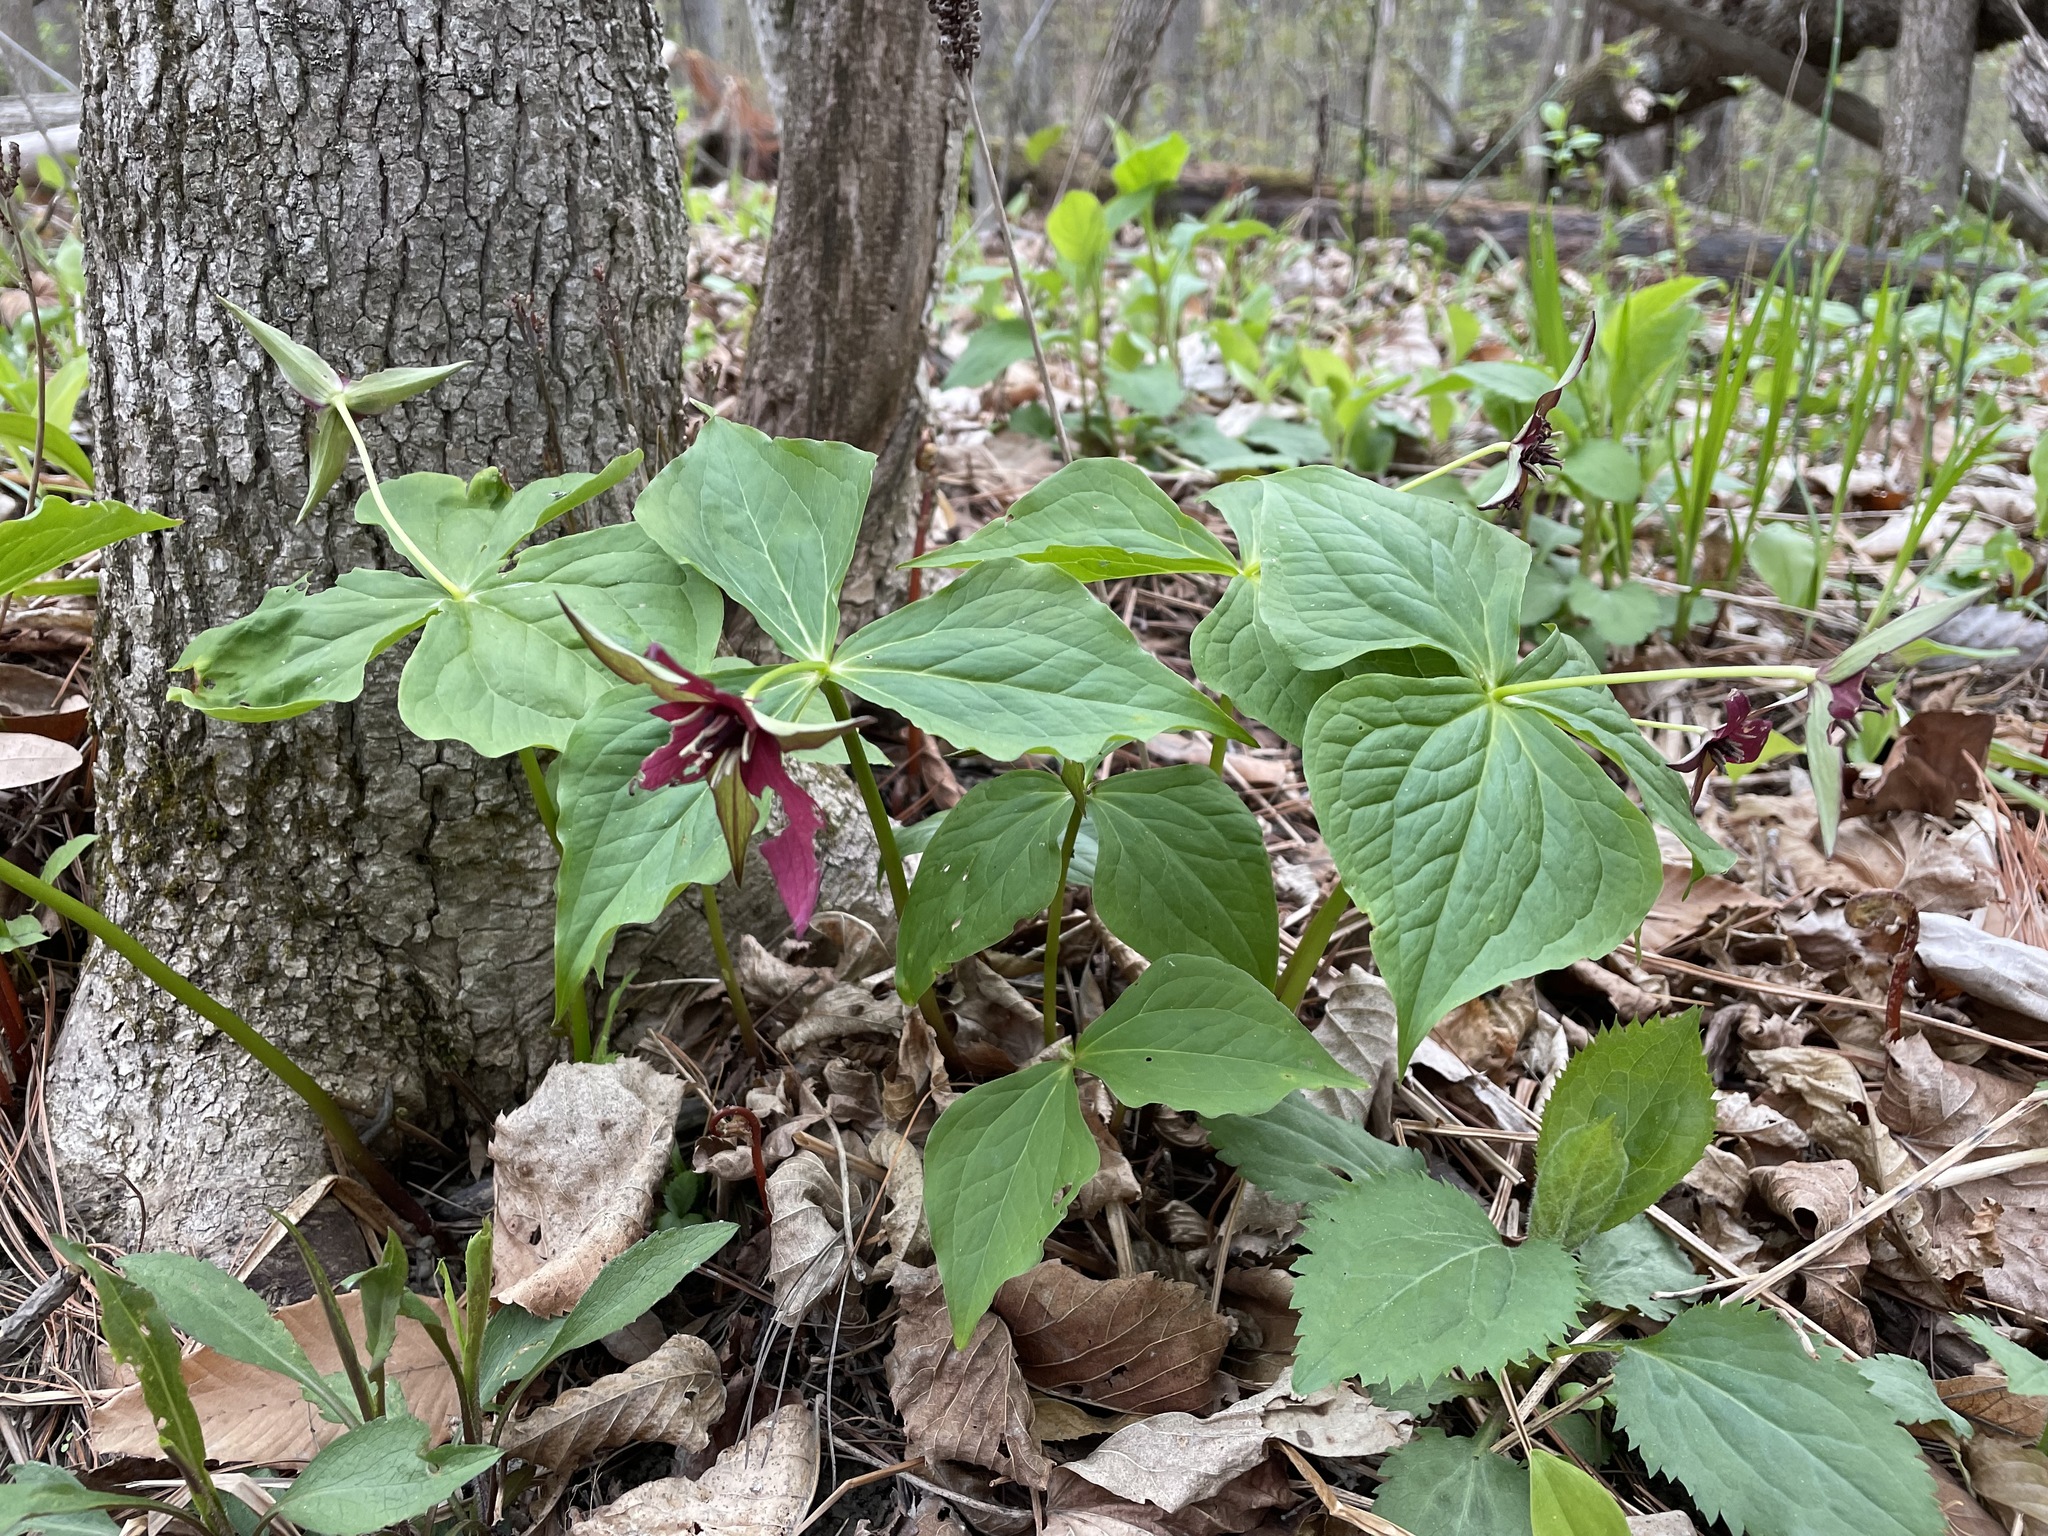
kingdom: Plantae
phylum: Tracheophyta
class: Liliopsida
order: Liliales
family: Melanthiaceae
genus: Trillium
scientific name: Trillium erectum
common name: Purple trillium
